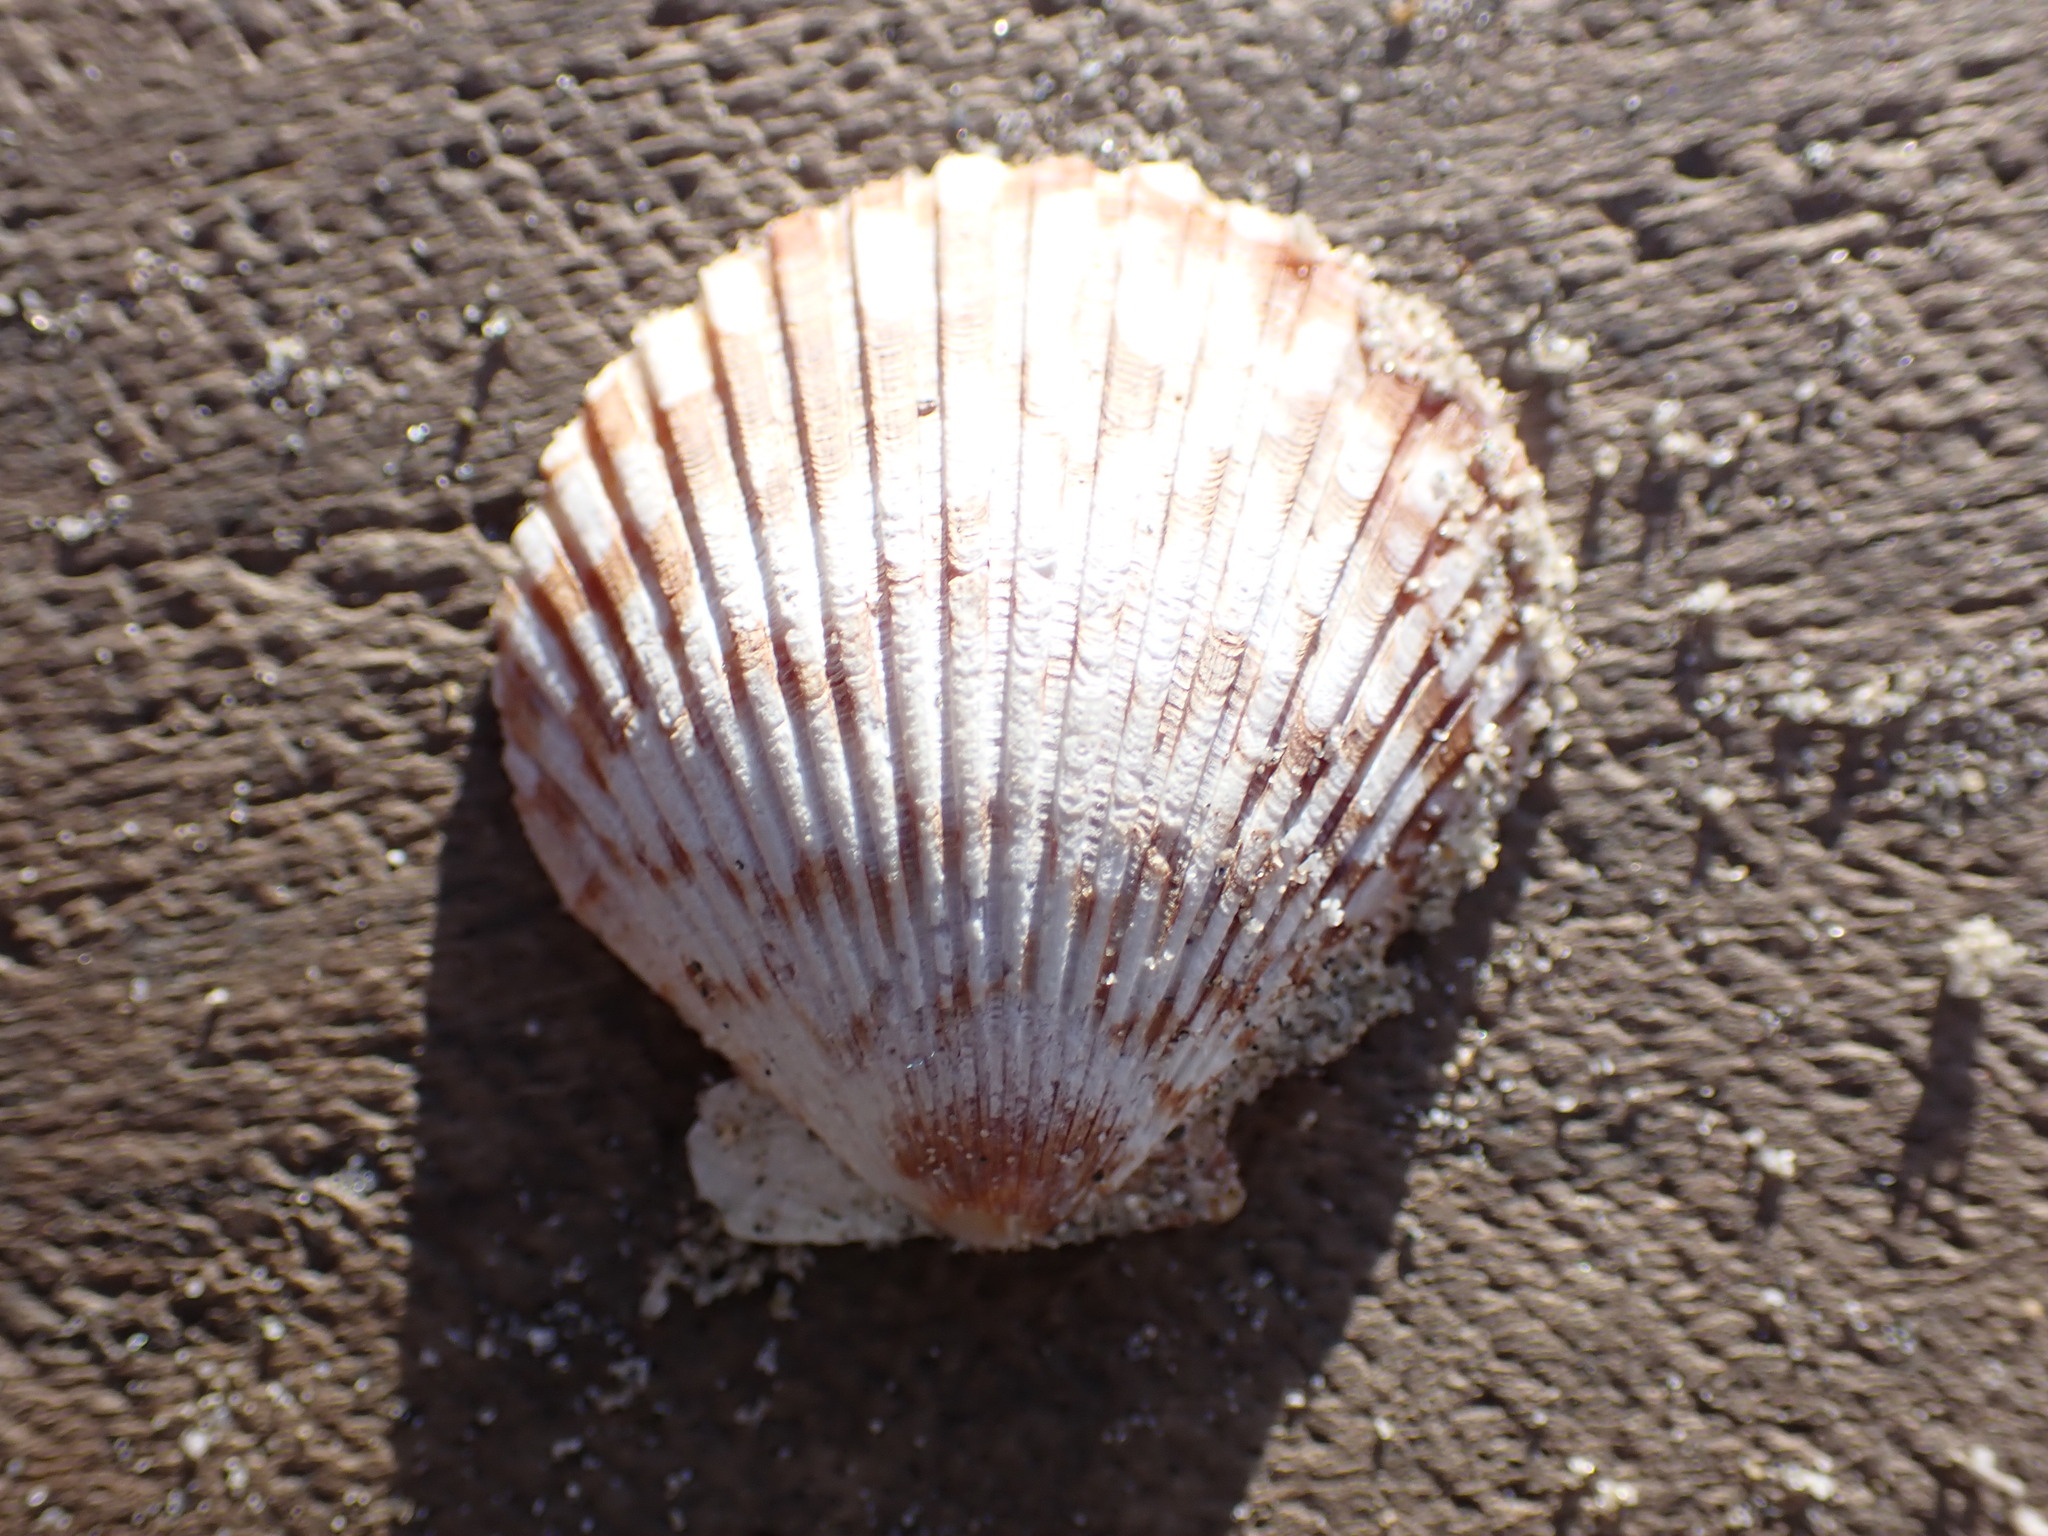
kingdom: Animalia
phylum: Mollusca
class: Bivalvia
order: Pectinida
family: Pectinidae
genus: Argopecten
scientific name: Argopecten ventricosus
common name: Catarina scallop
